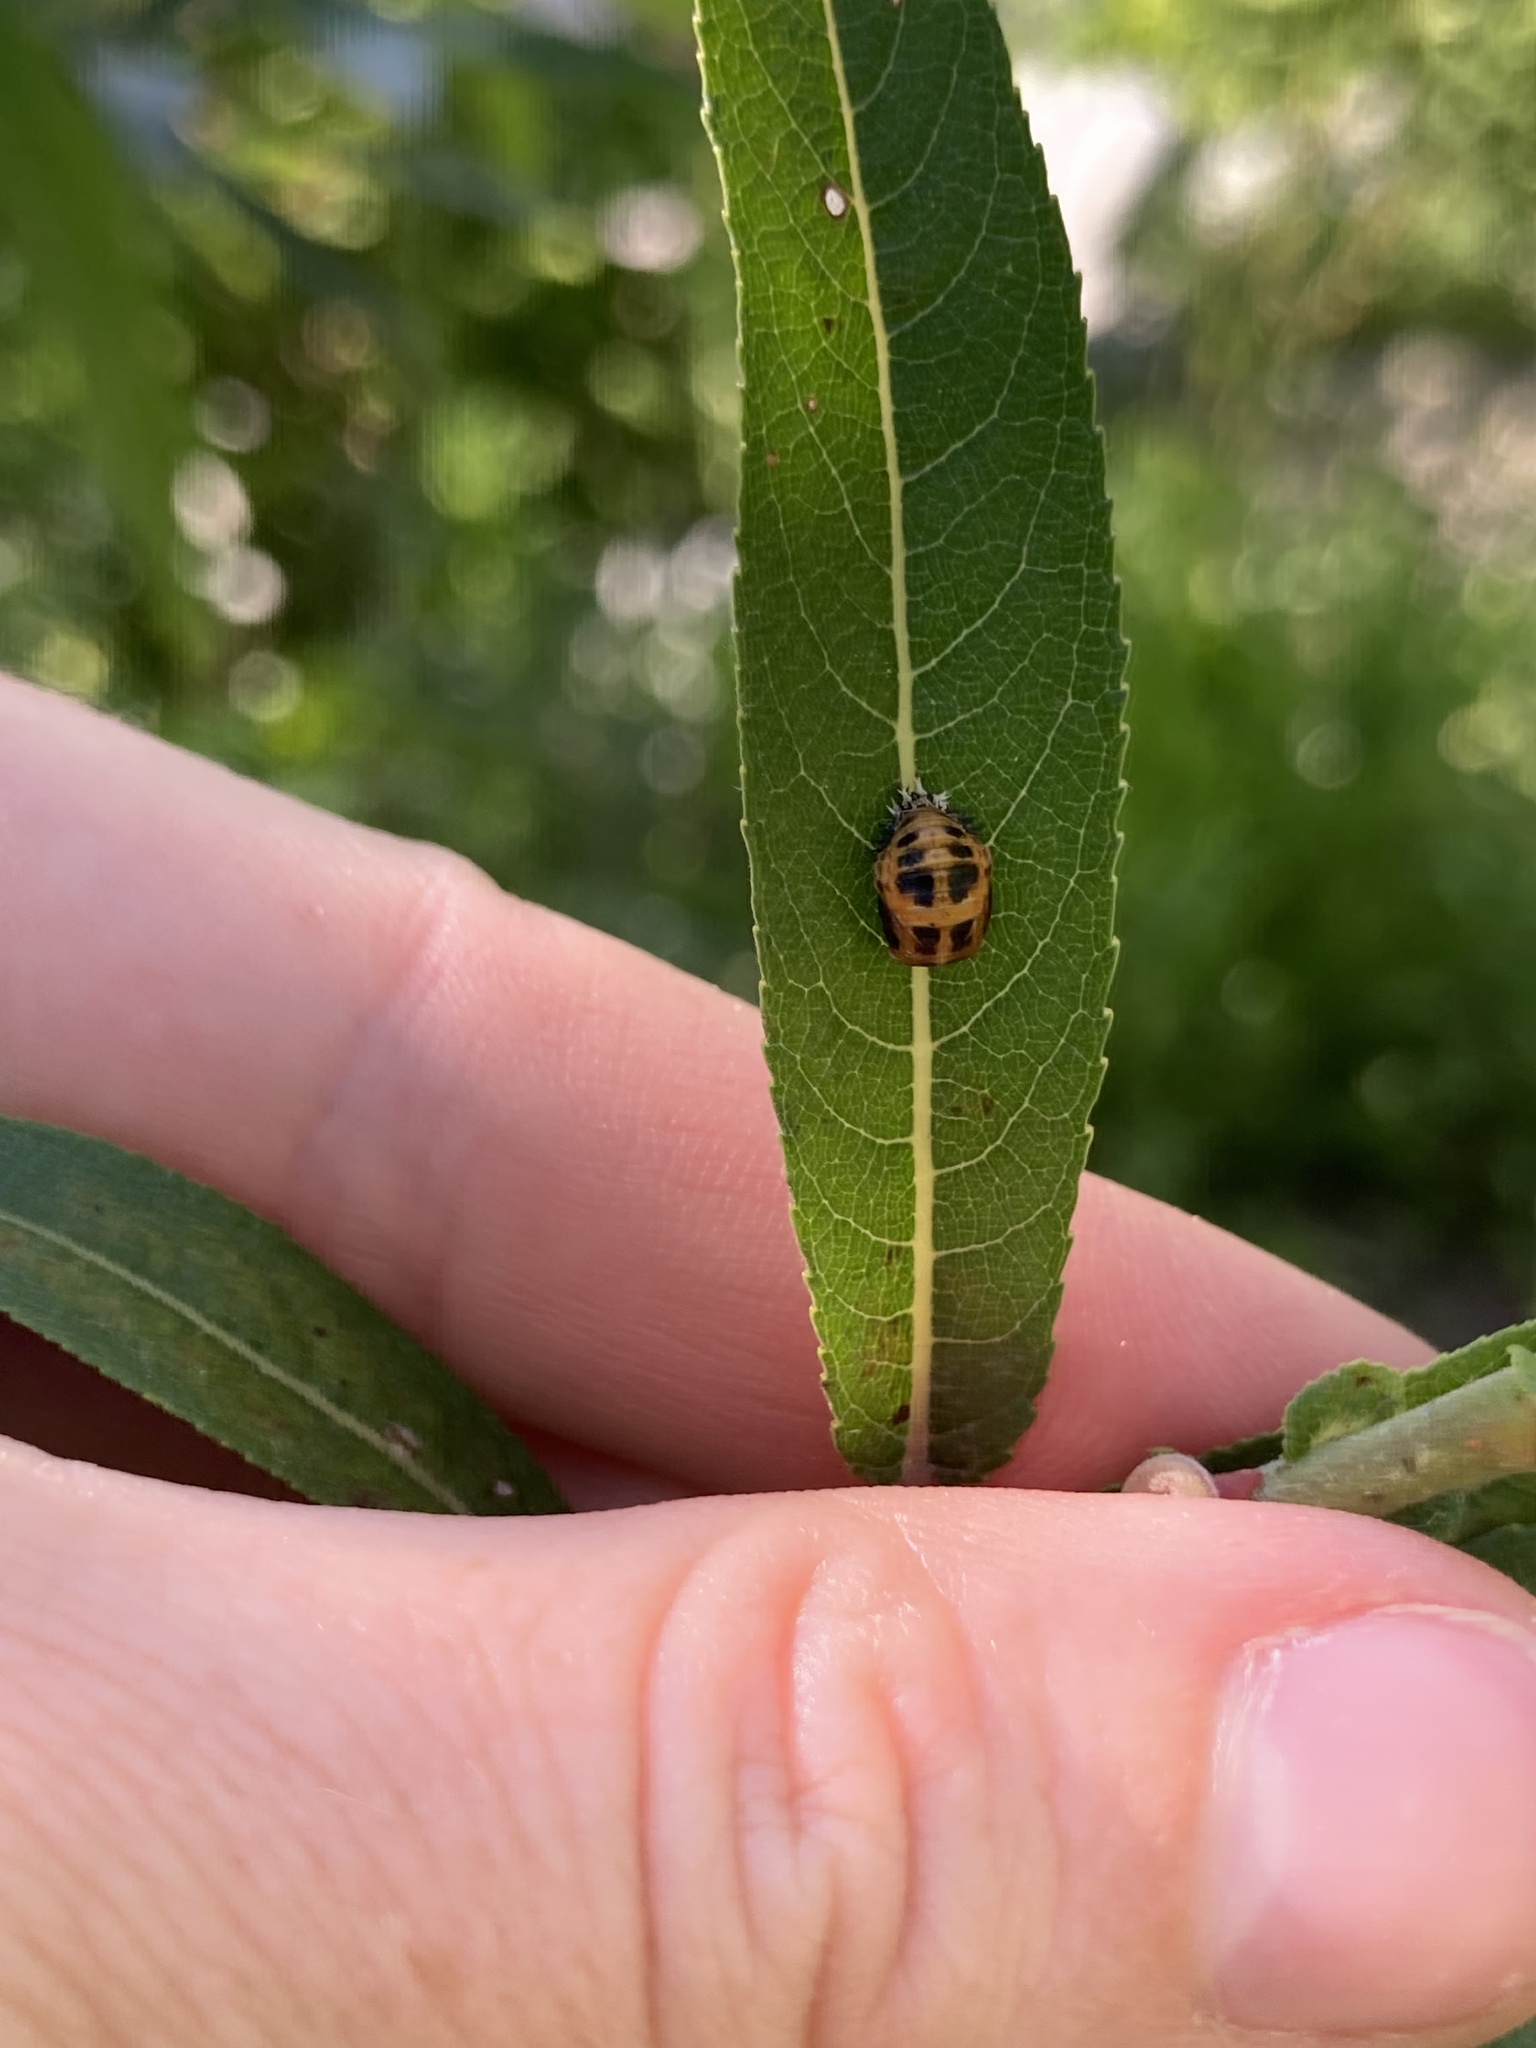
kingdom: Animalia
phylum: Arthropoda
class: Insecta
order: Coleoptera
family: Coccinellidae
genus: Harmonia
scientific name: Harmonia axyridis
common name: Harlequin ladybird
